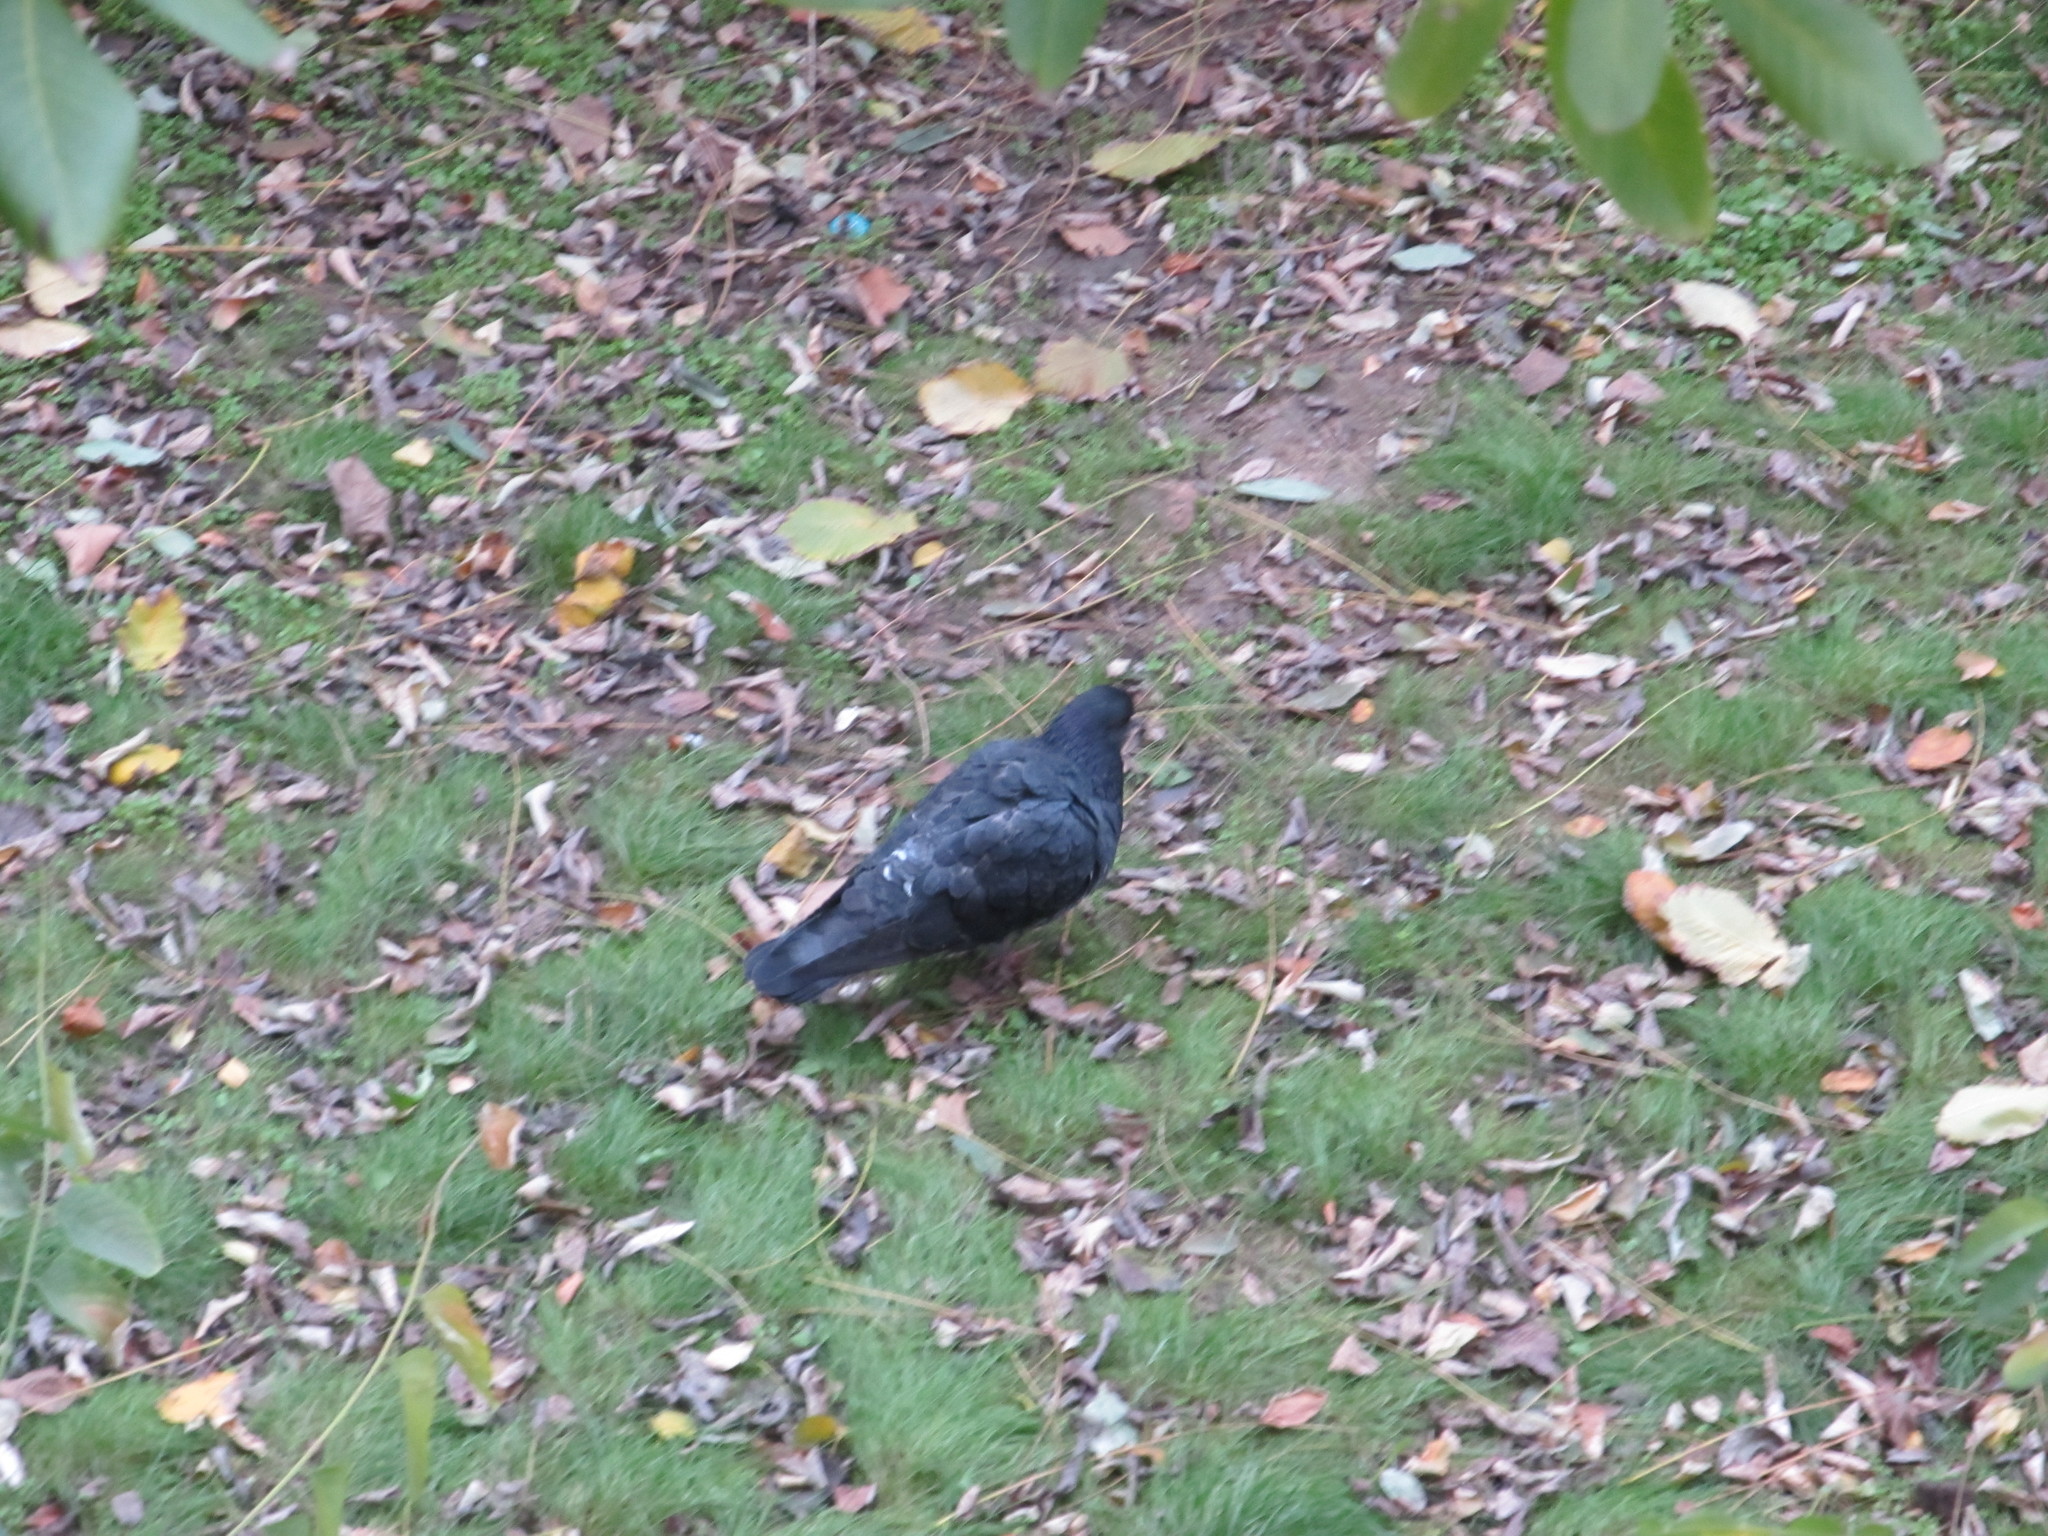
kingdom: Animalia
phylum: Chordata
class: Aves
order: Columbiformes
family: Columbidae
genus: Columba
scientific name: Columba livia
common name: Rock pigeon
